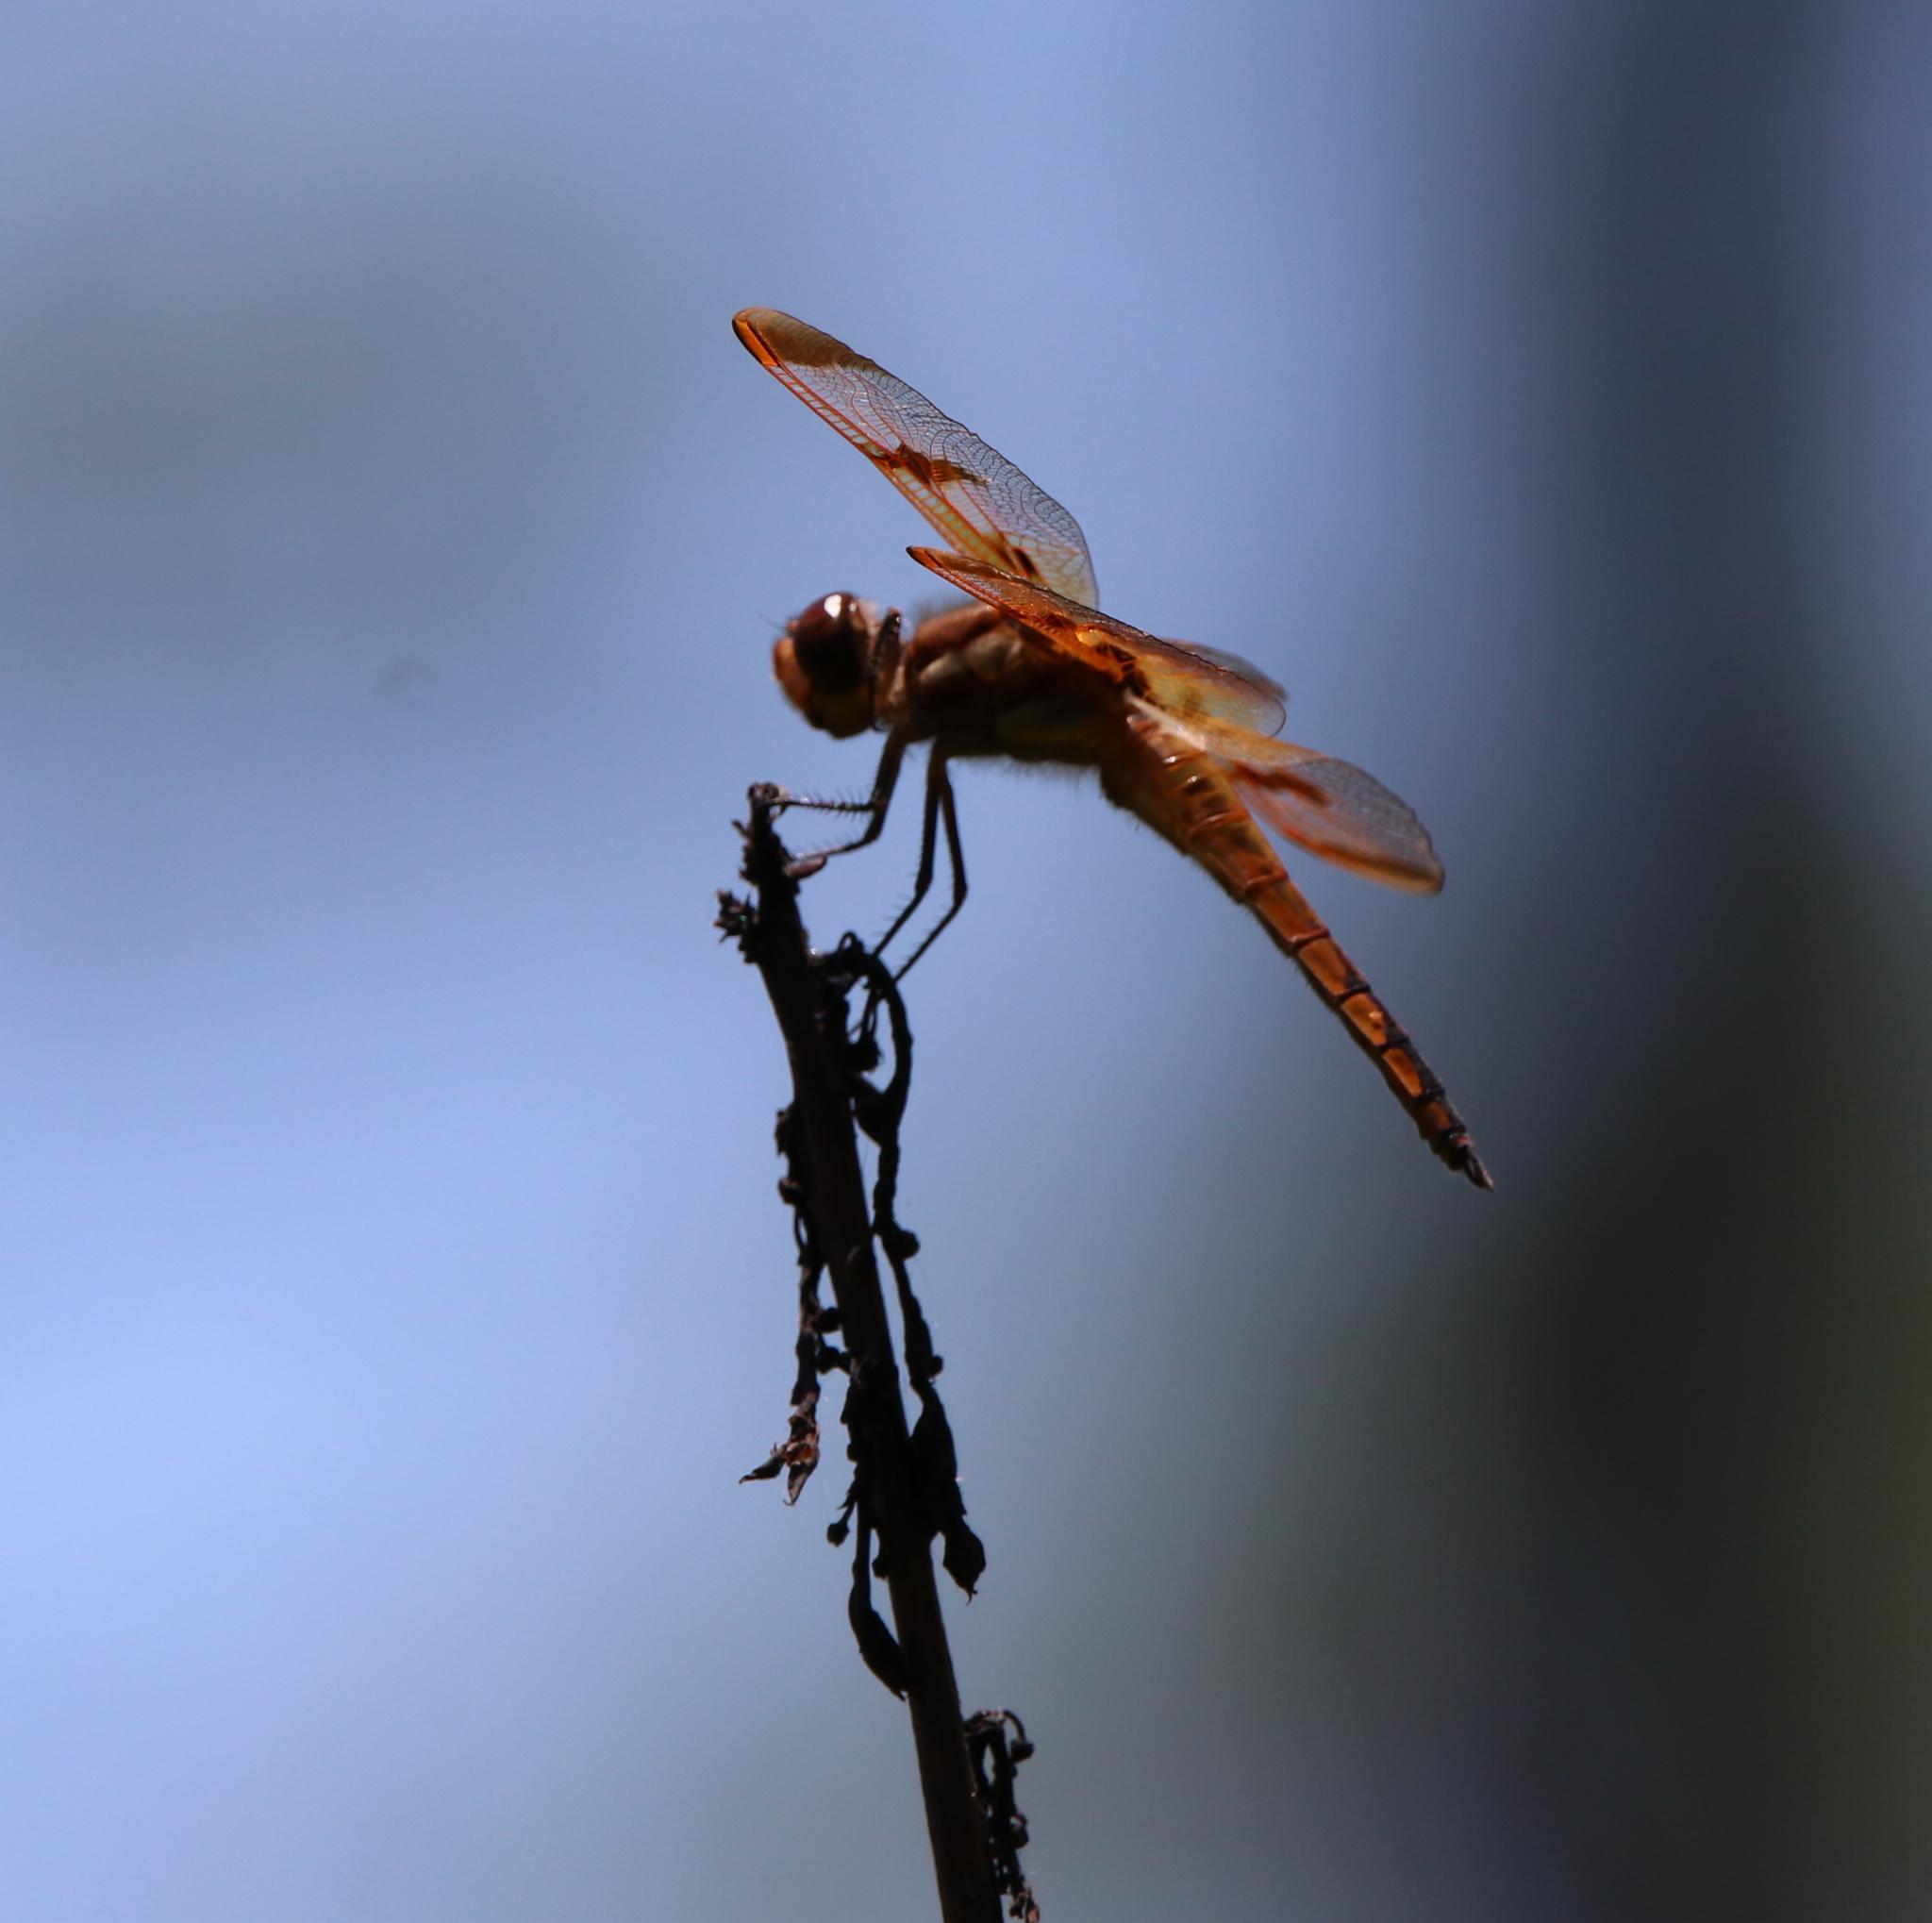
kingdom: Animalia
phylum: Arthropoda
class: Insecta
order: Odonata
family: Libellulidae
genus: Libellula
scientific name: Libellula semifasciata
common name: Painted skimmer
